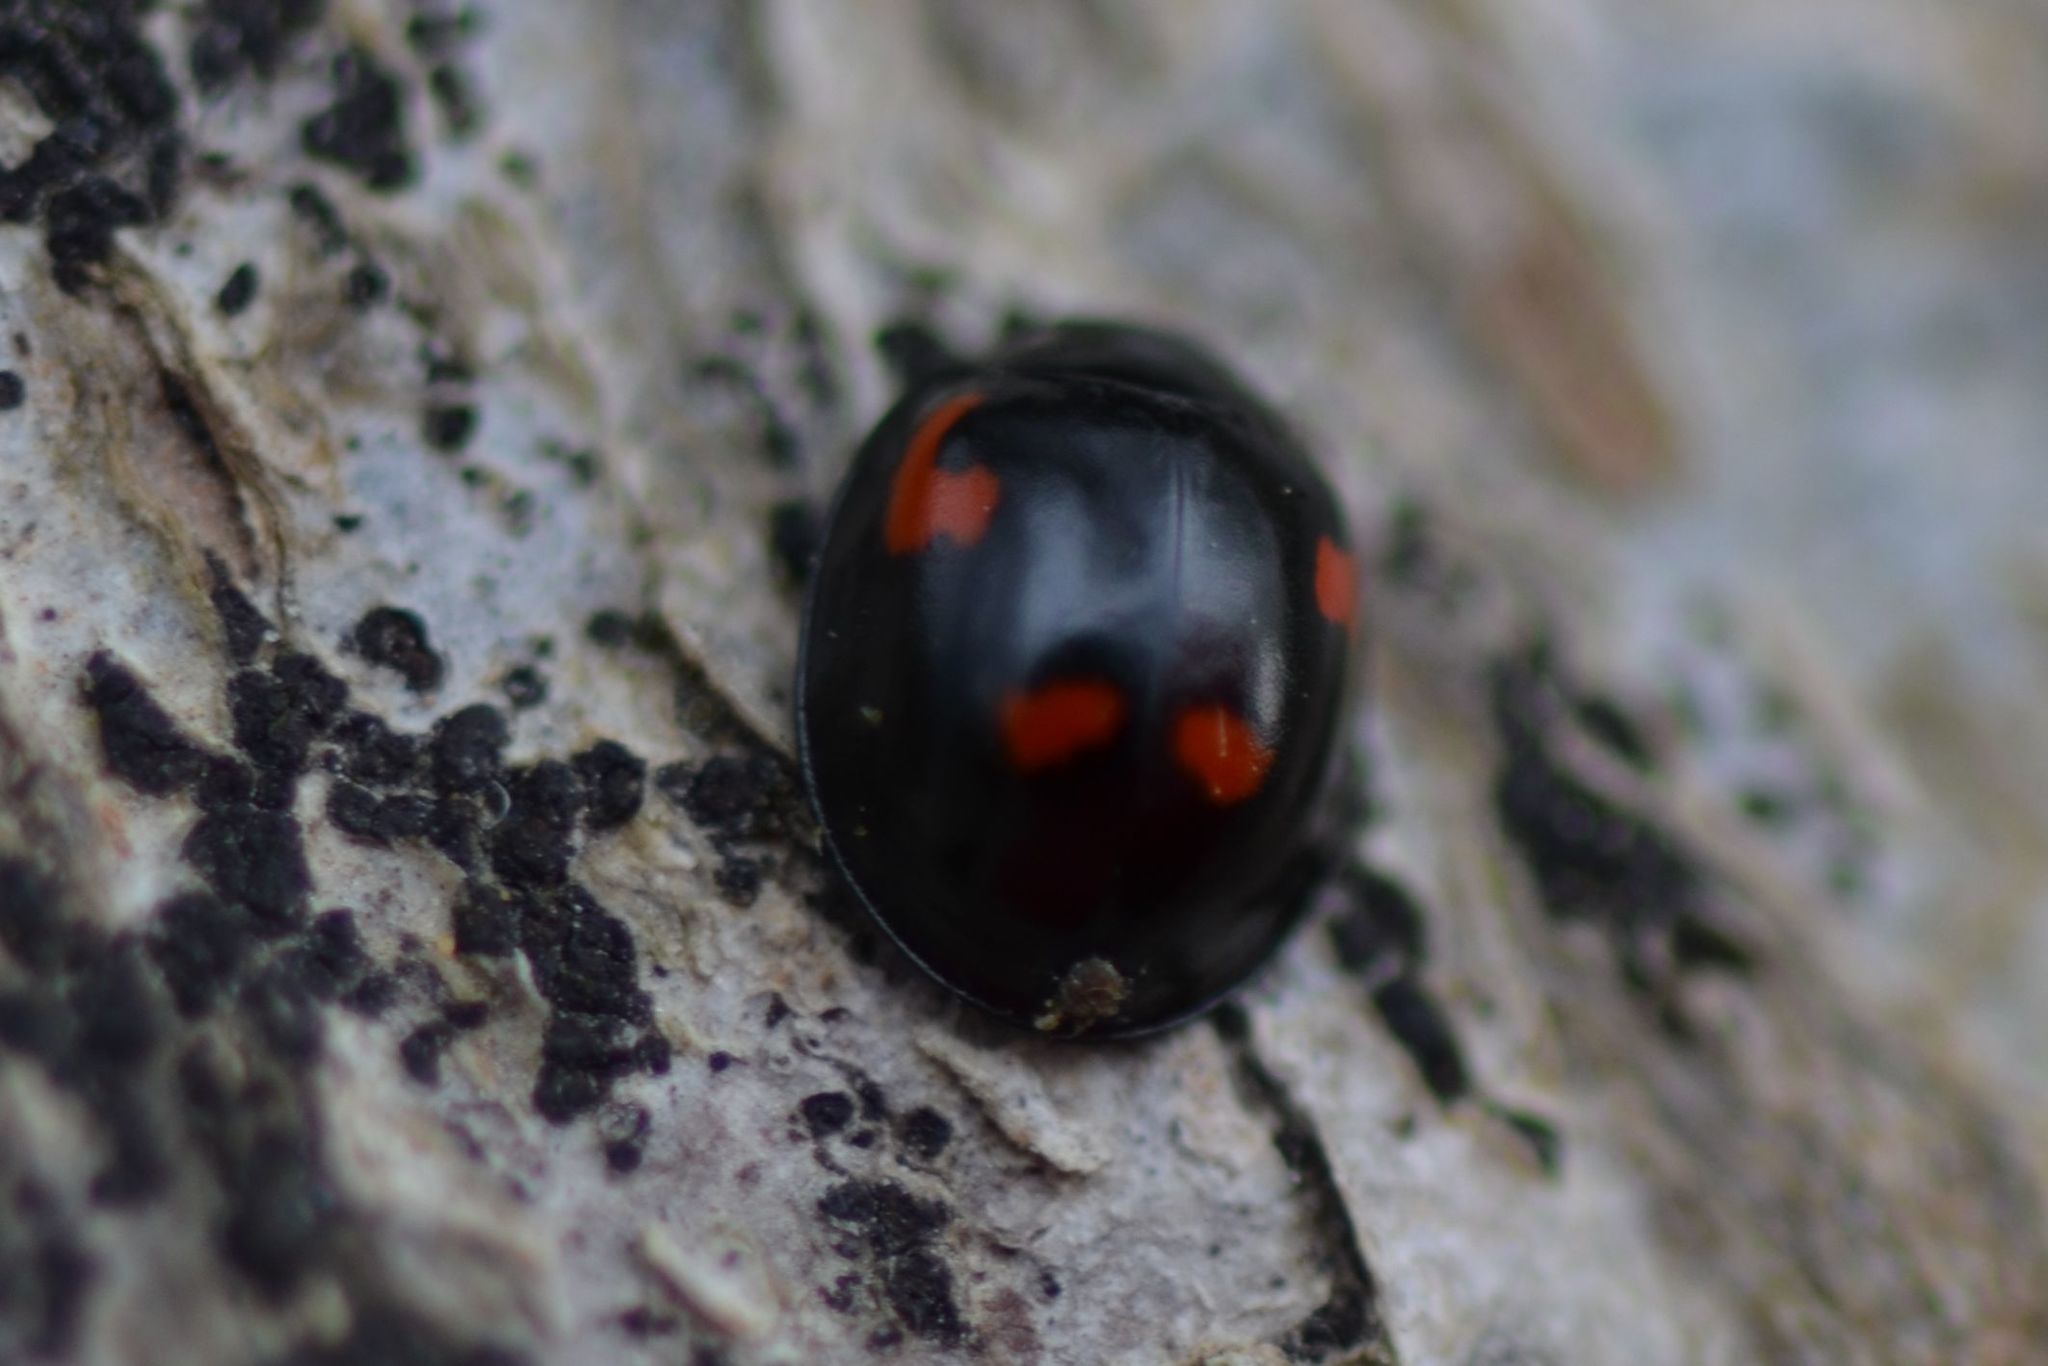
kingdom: Animalia
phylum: Arthropoda
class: Insecta
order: Coleoptera
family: Coccinellidae
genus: Brumus
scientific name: Brumus quadripustulatus
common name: Ladybird beetle
